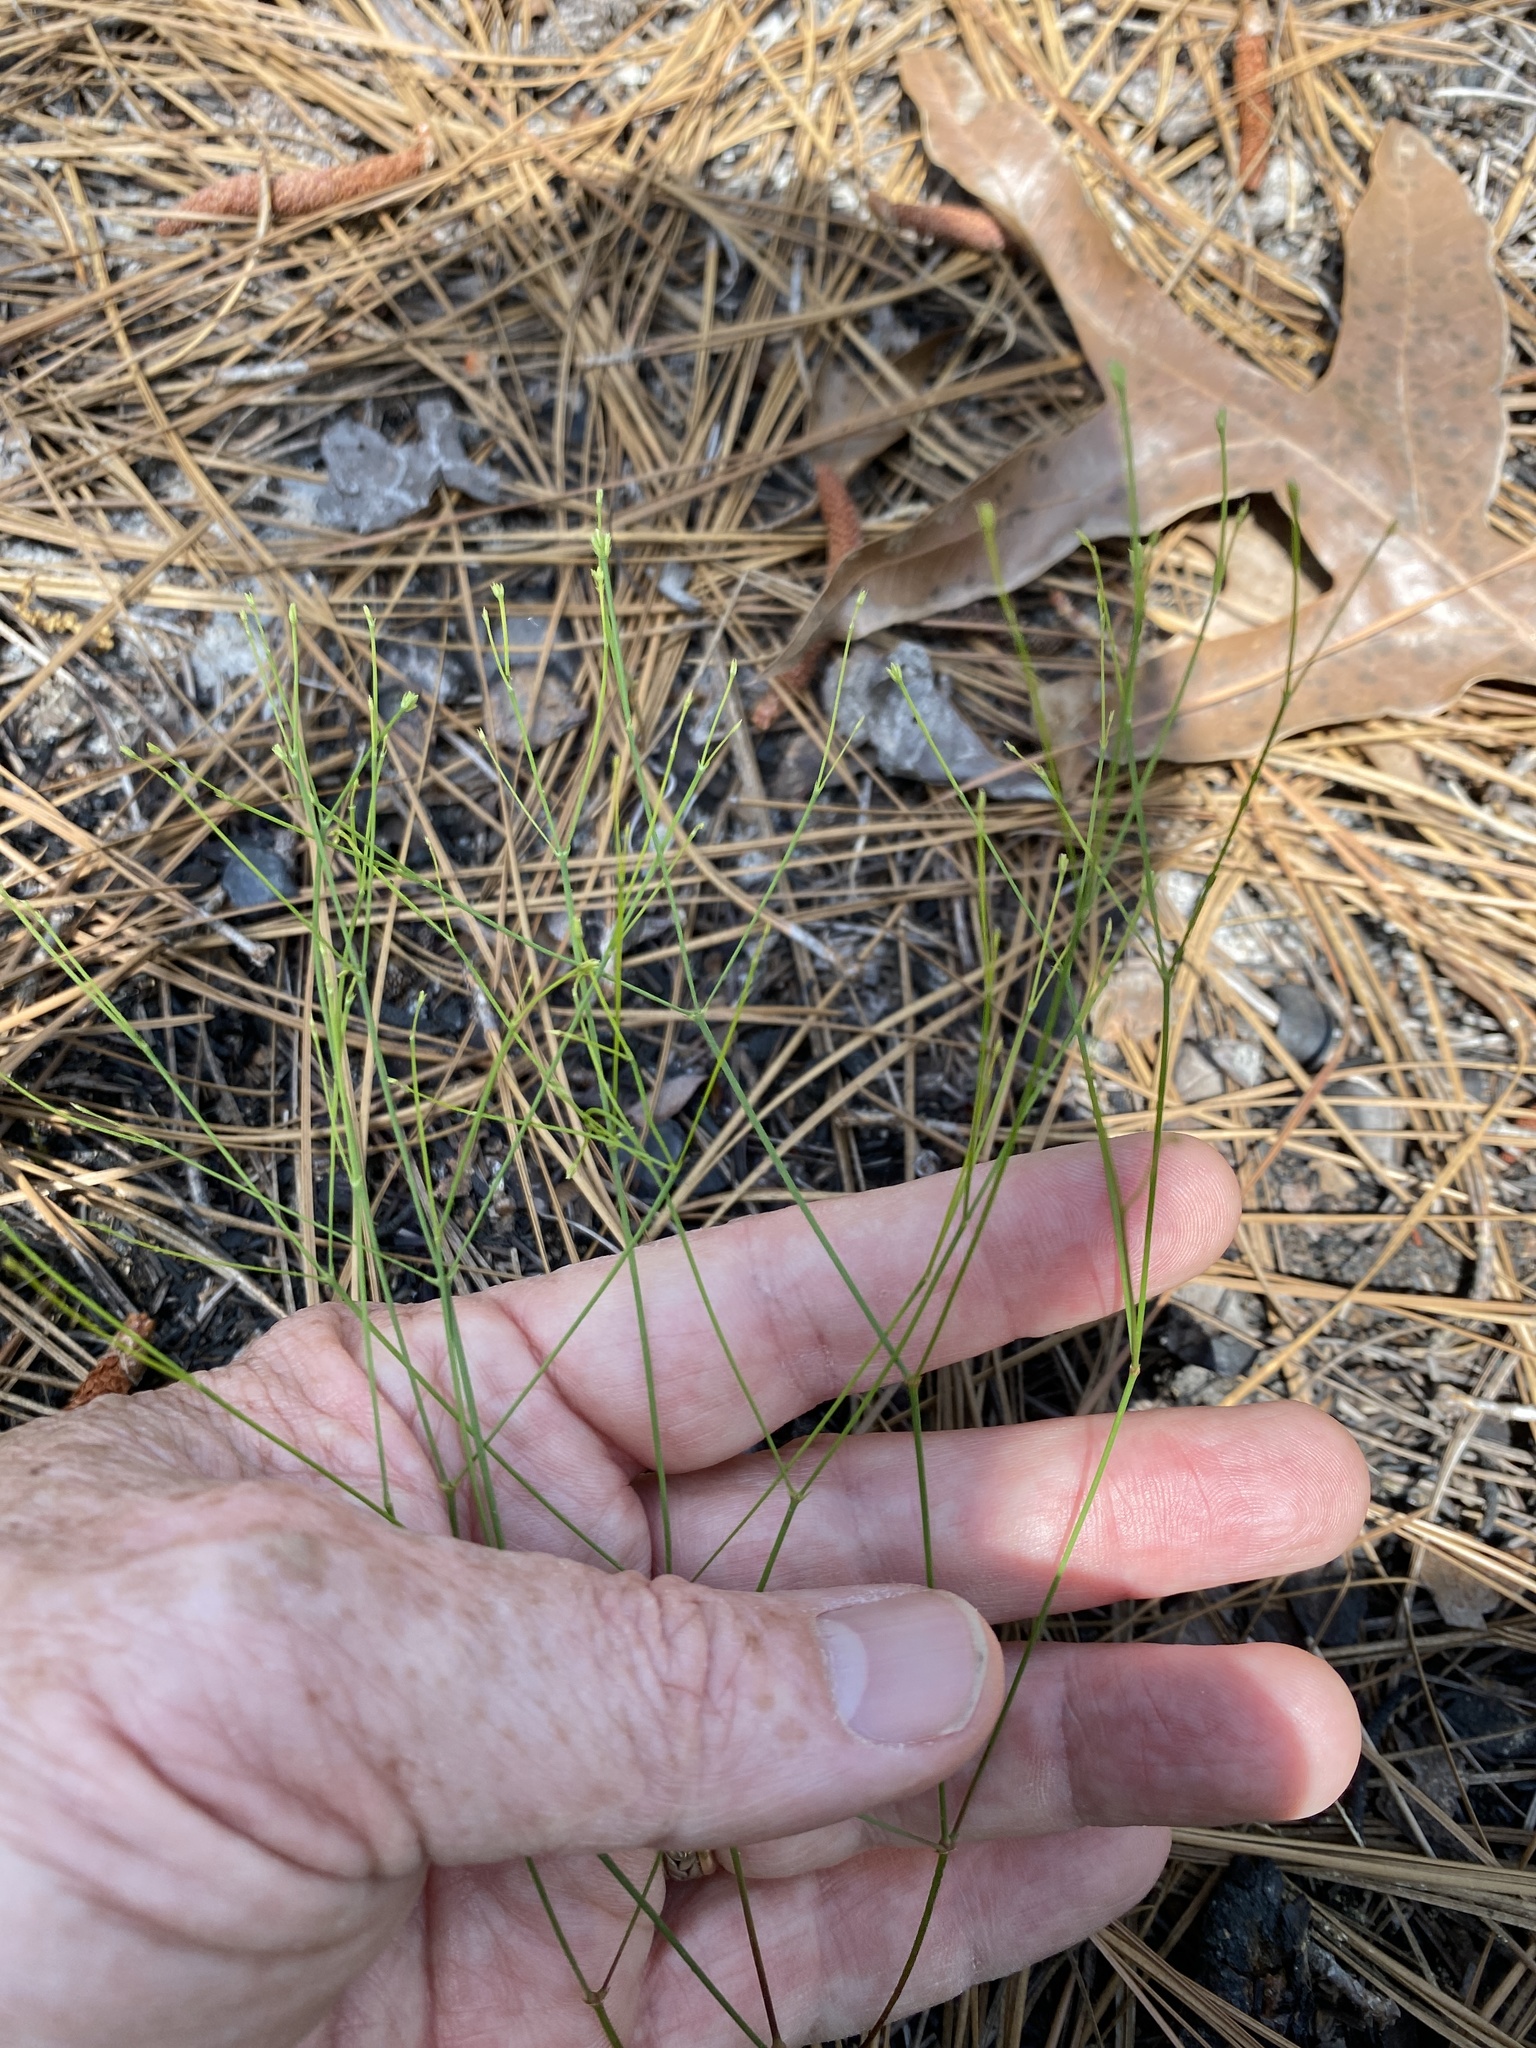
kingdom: Plantae
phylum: Tracheophyta
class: Magnoliopsida
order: Caryophyllales
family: Caryophyllaceae
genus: Stipulicida
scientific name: Stipulicida setacea
